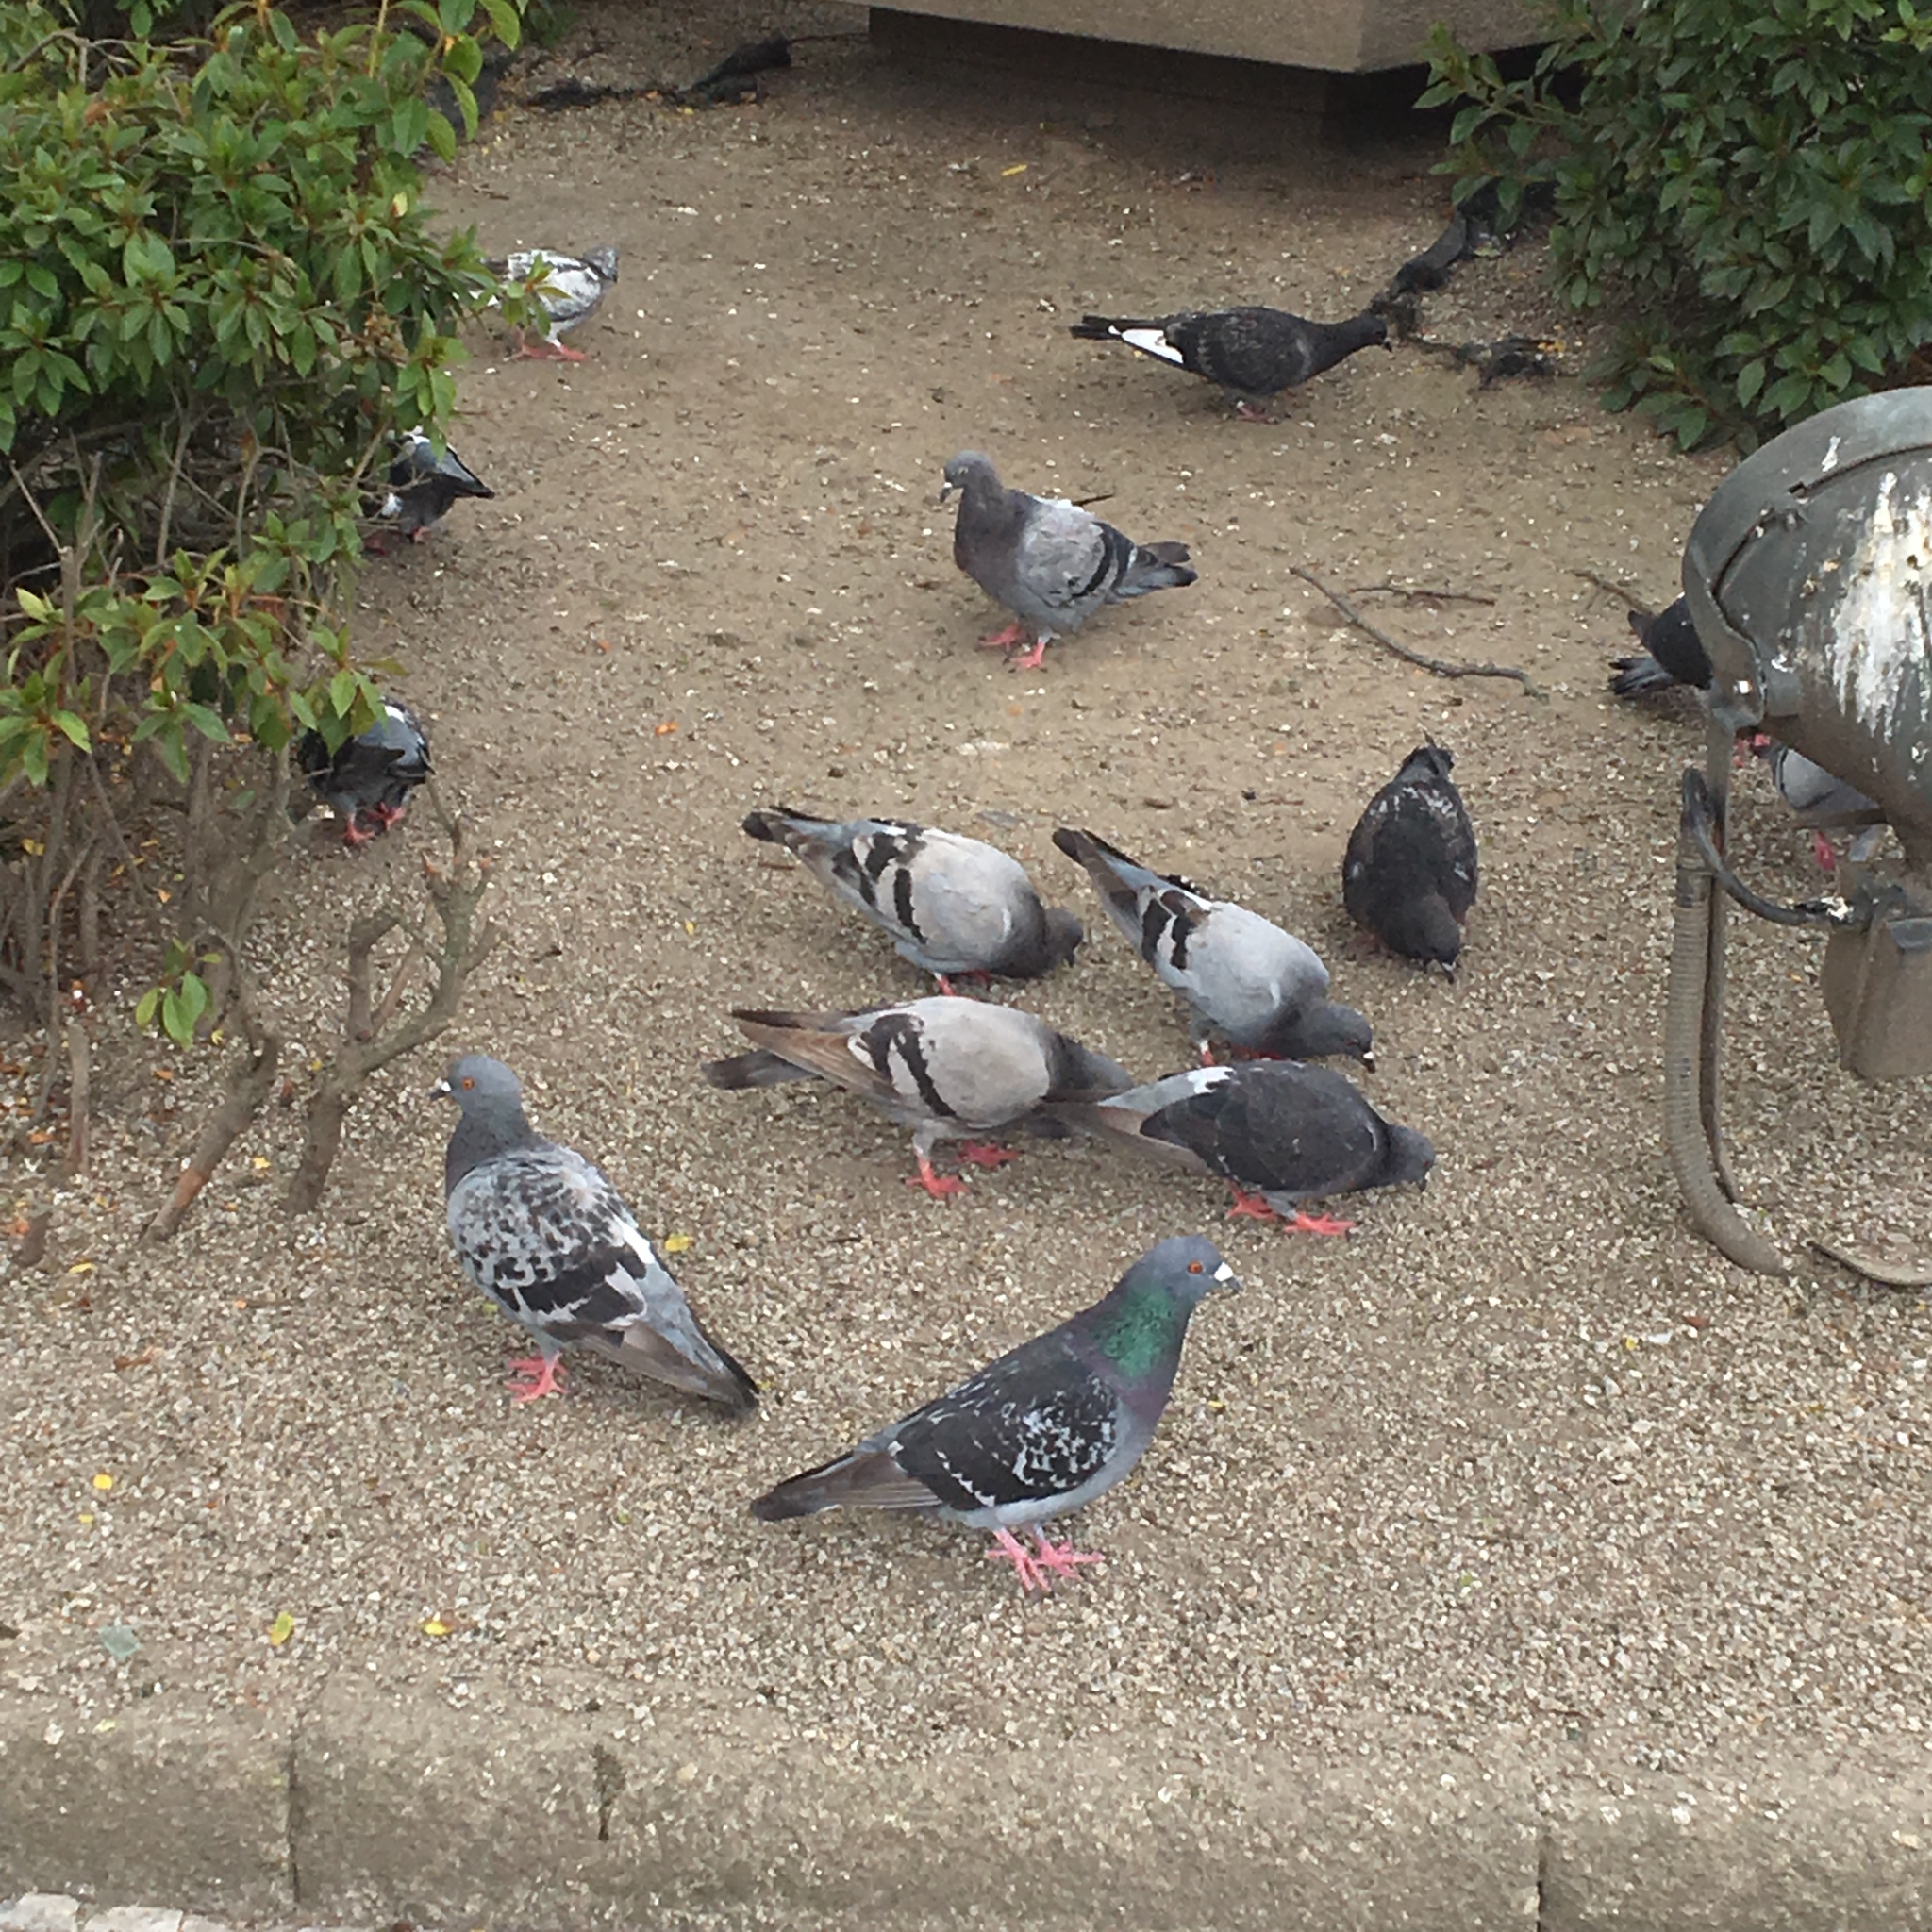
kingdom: Animalia
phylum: Chordata
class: Aves
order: Columbiformes
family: Columbidae
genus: Columba
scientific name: Columba livia
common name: Rock pigeon
